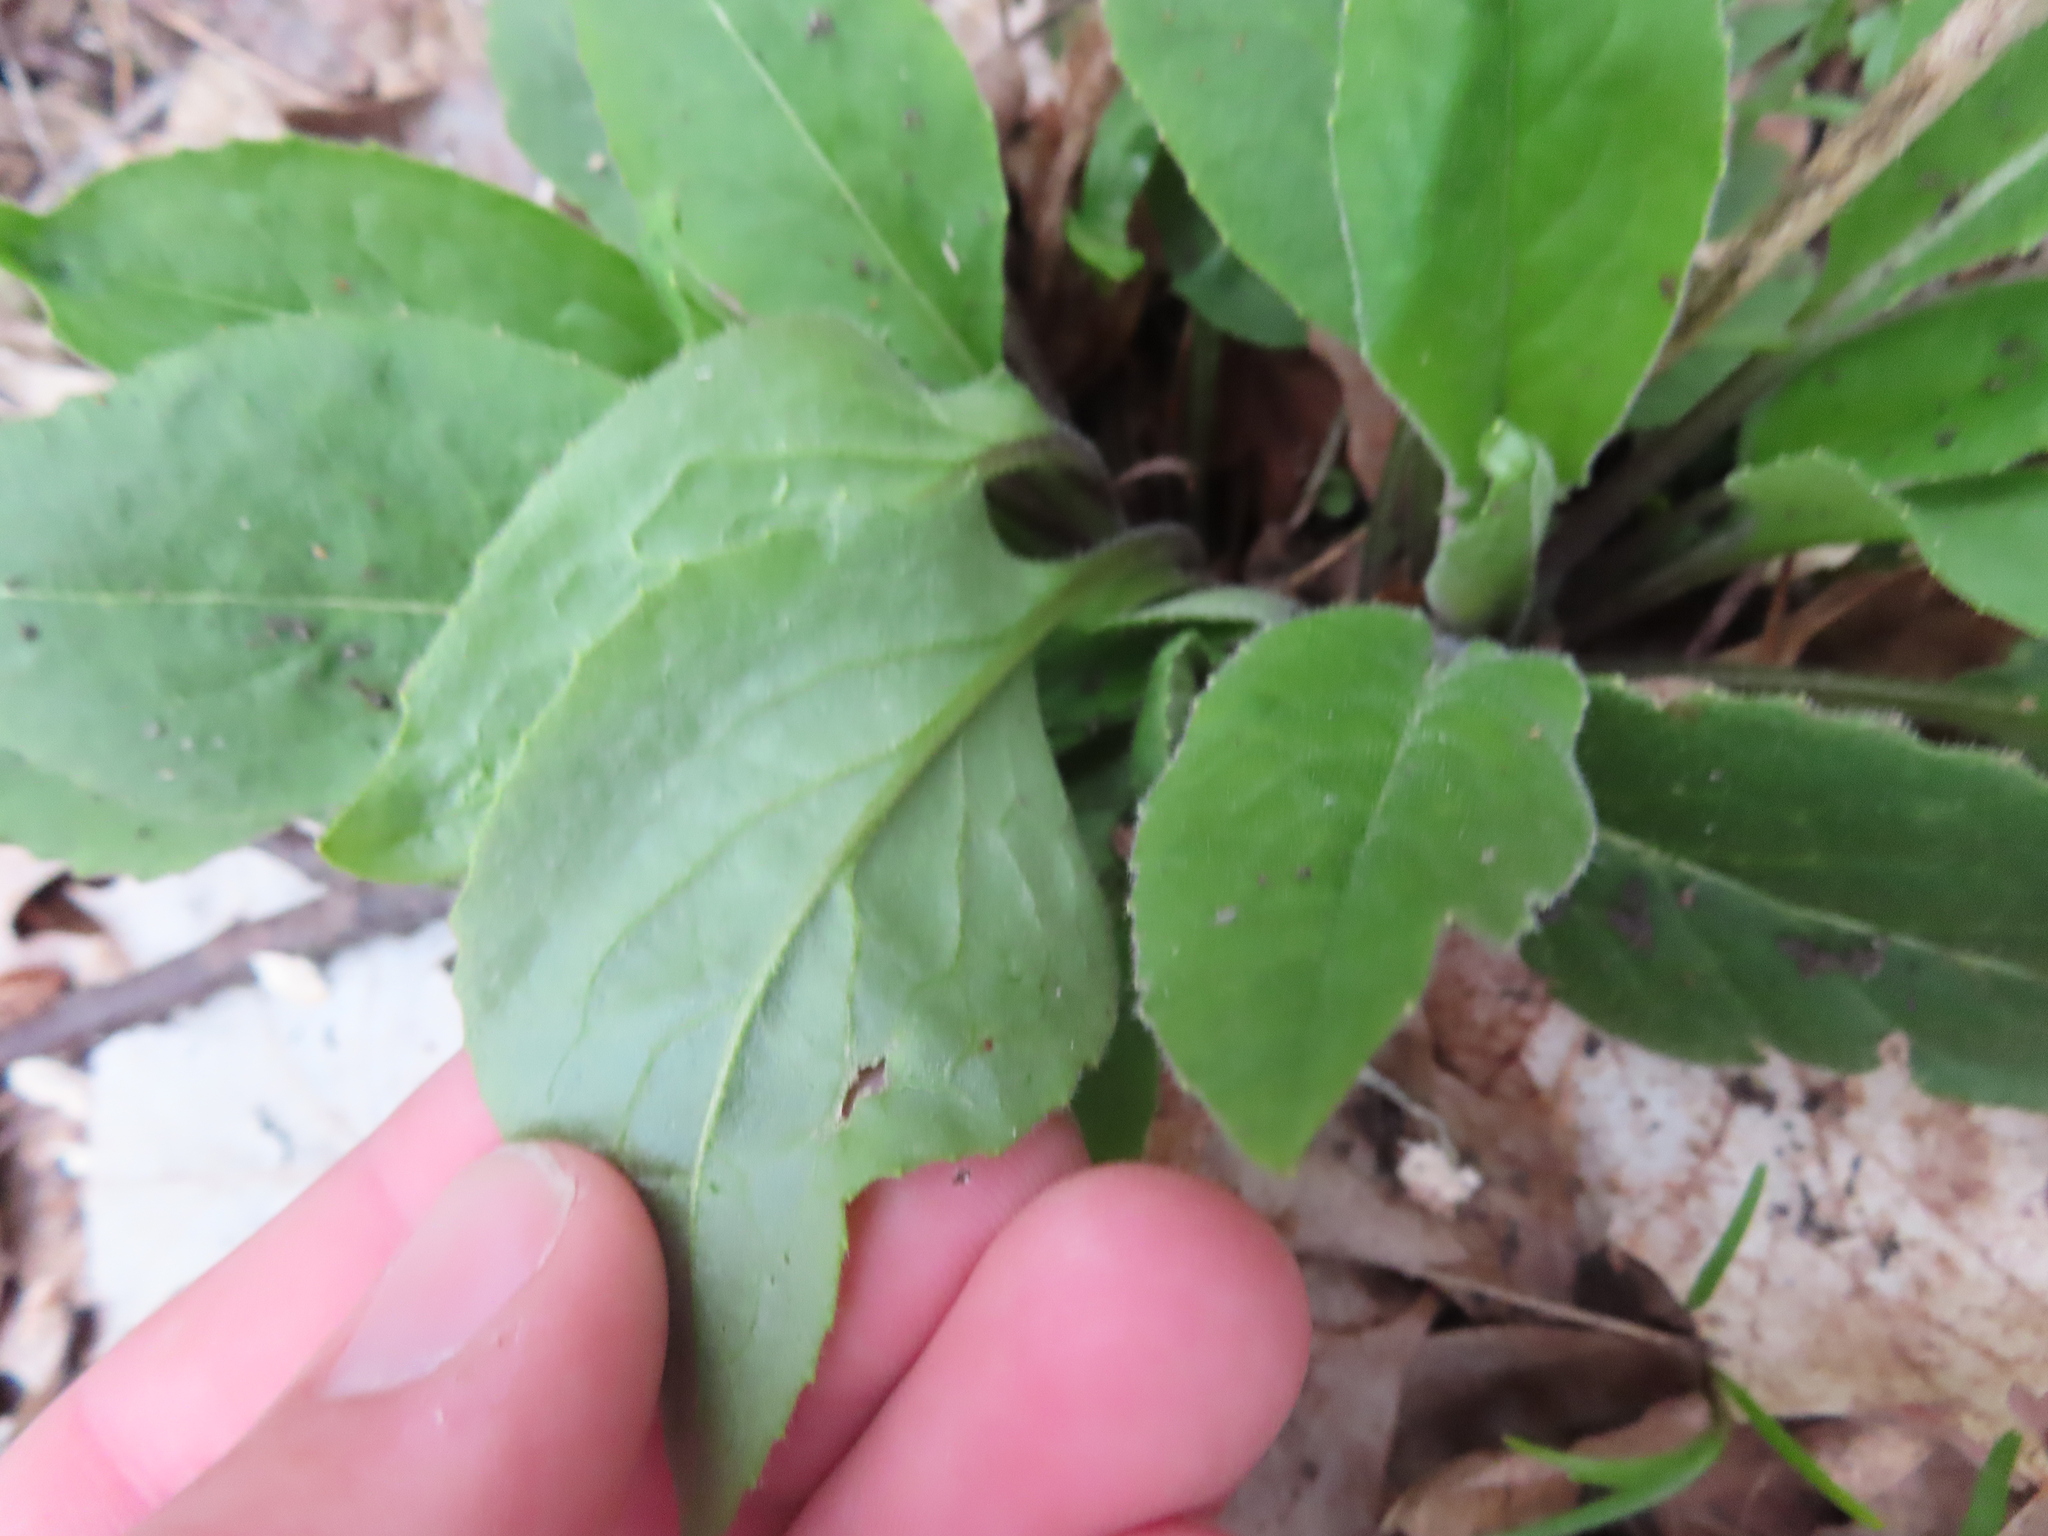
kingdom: Plantae
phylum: Tracheophyta
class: Magnoliopsida
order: Brassicales
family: Brassicaceae
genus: Hesperis
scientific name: Hesperis matronalis
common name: Dame's-violet
